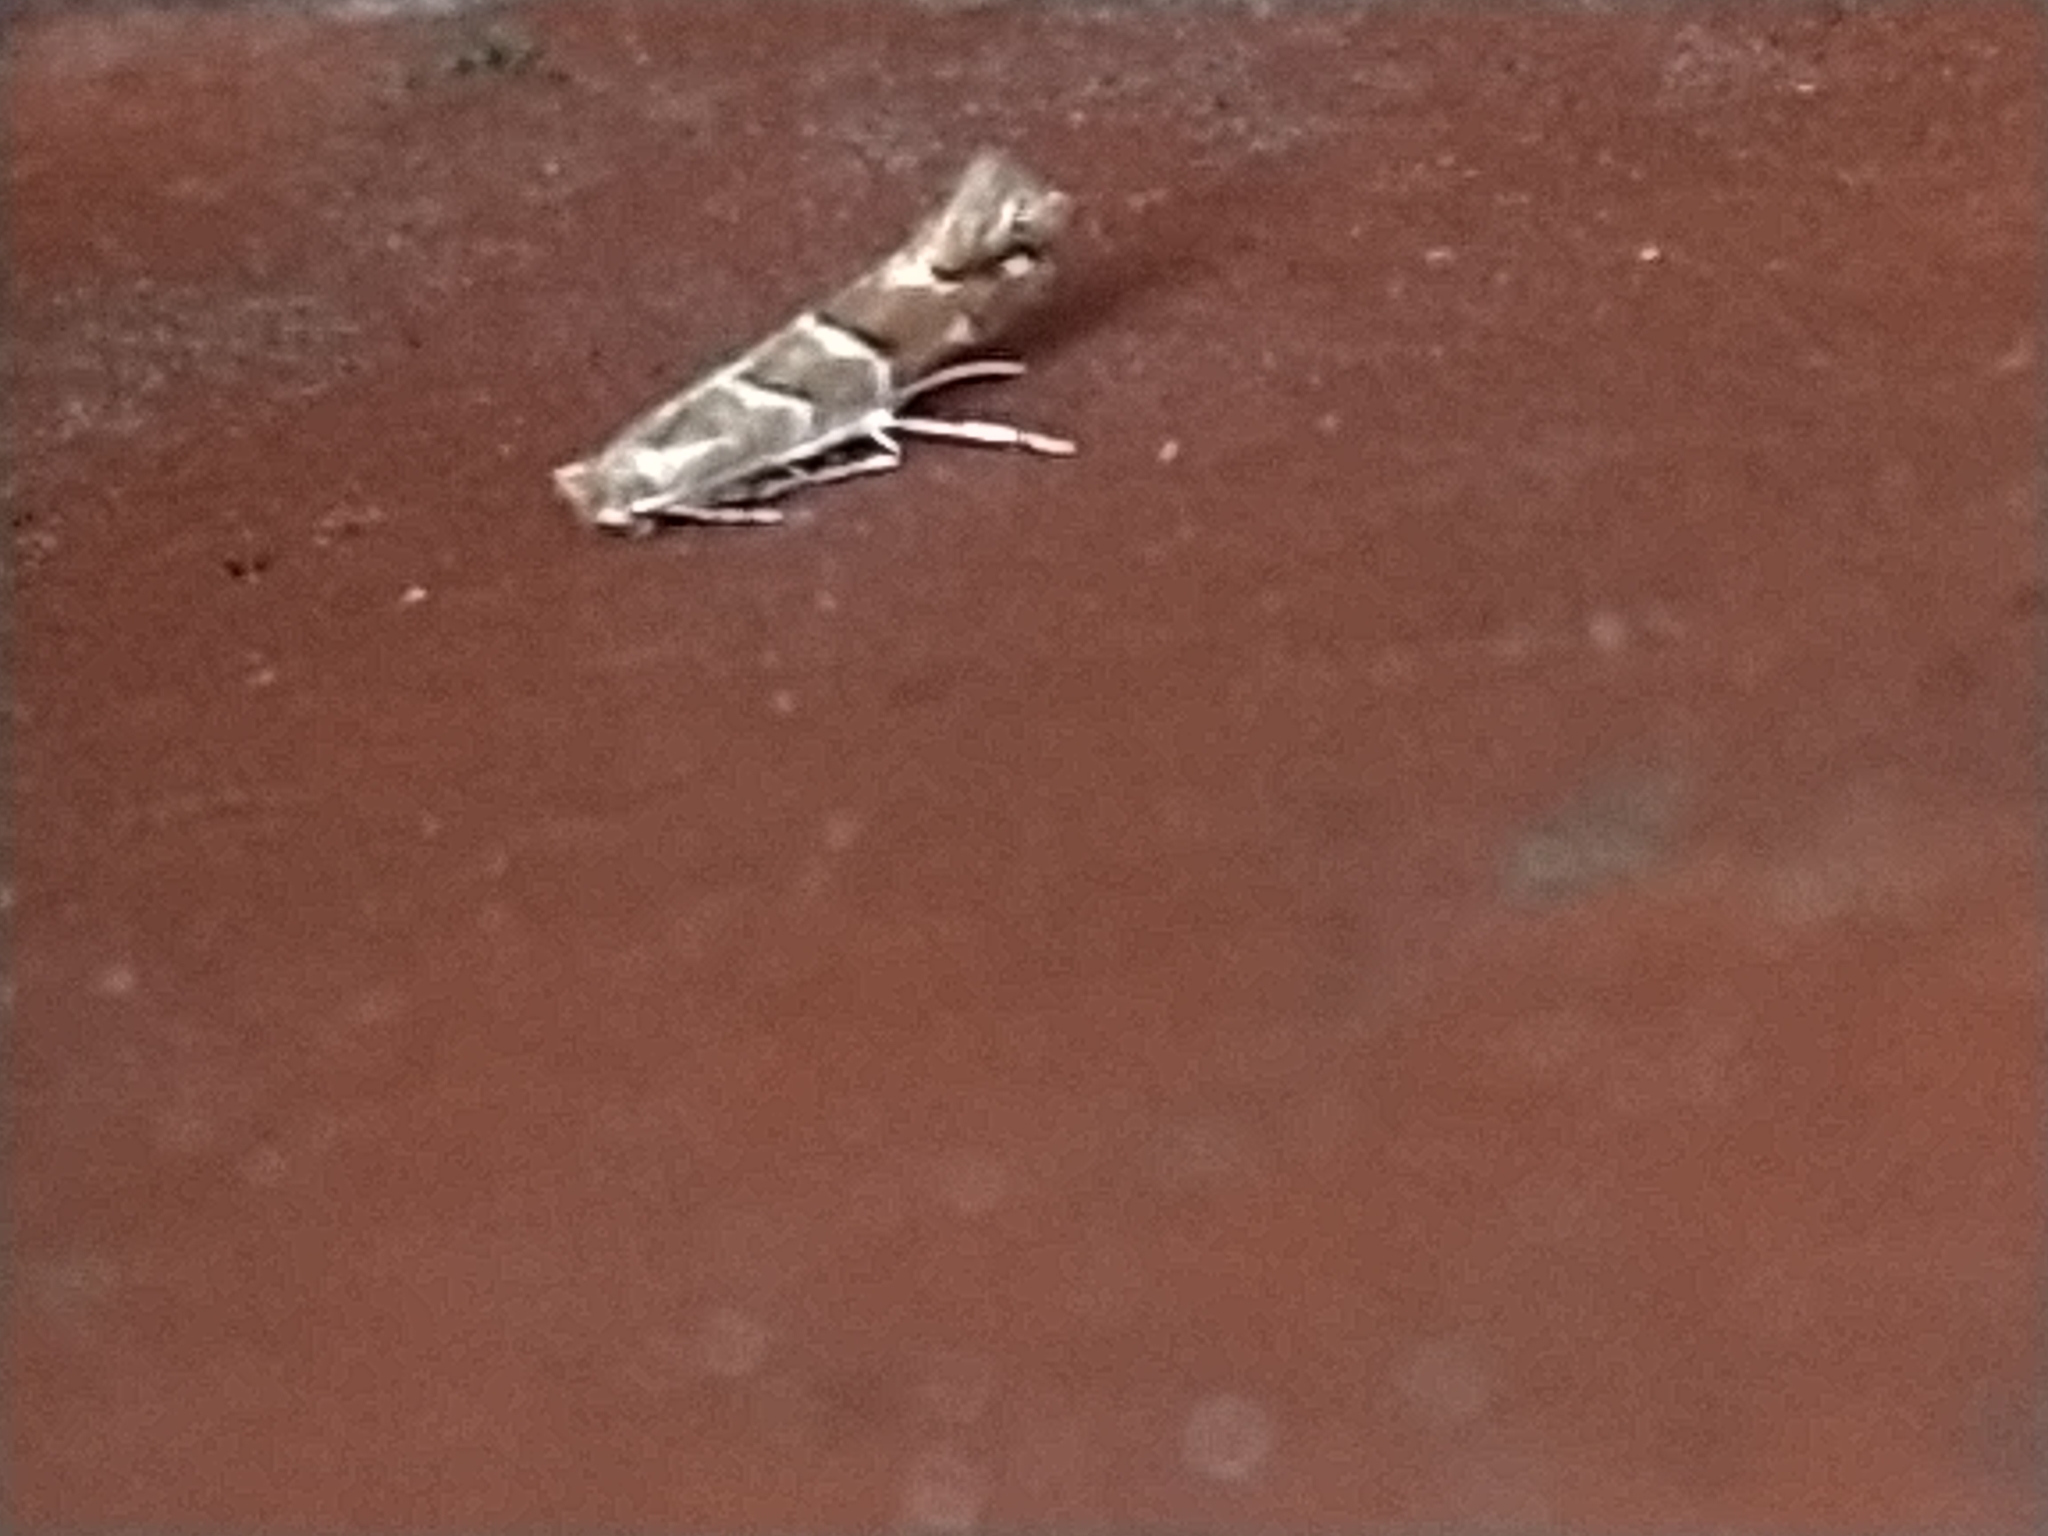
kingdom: Animalia
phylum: Arthropoda
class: Insecta
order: Lepidoptera
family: Gracillariidae
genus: Cameraria
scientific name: Cameraria ohridella
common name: Horse-chestnut leaf-miner
